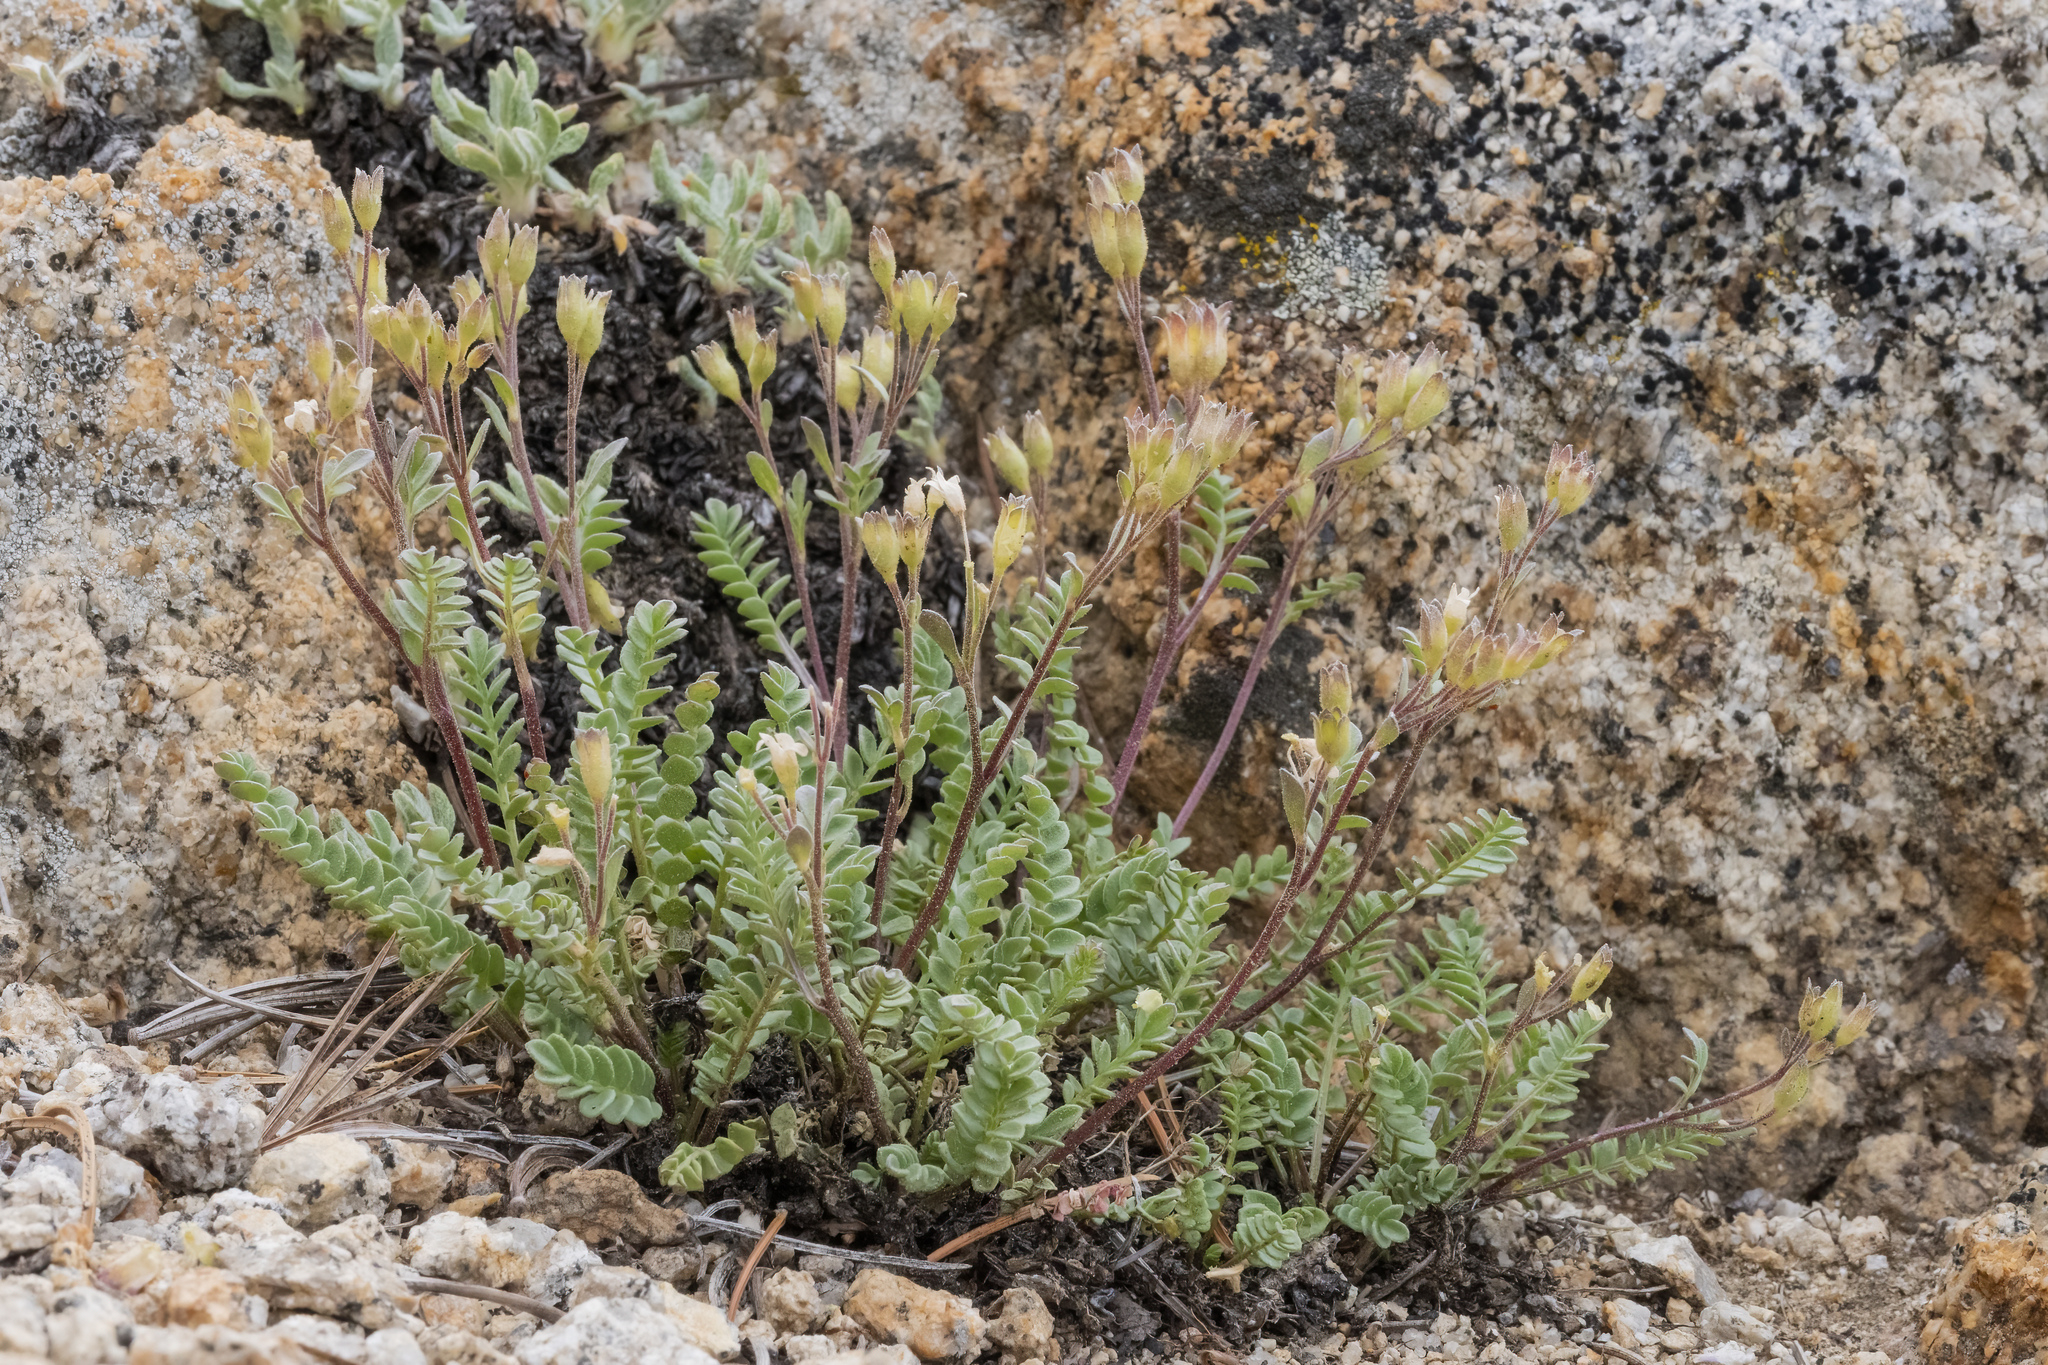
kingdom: Plantae
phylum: Tracheophyta
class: Magnoliopsida
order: Ericales
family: Polemoniaceae
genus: Polemonium
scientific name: Polemonium pulcherrimum
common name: Short jacob's-ladder
